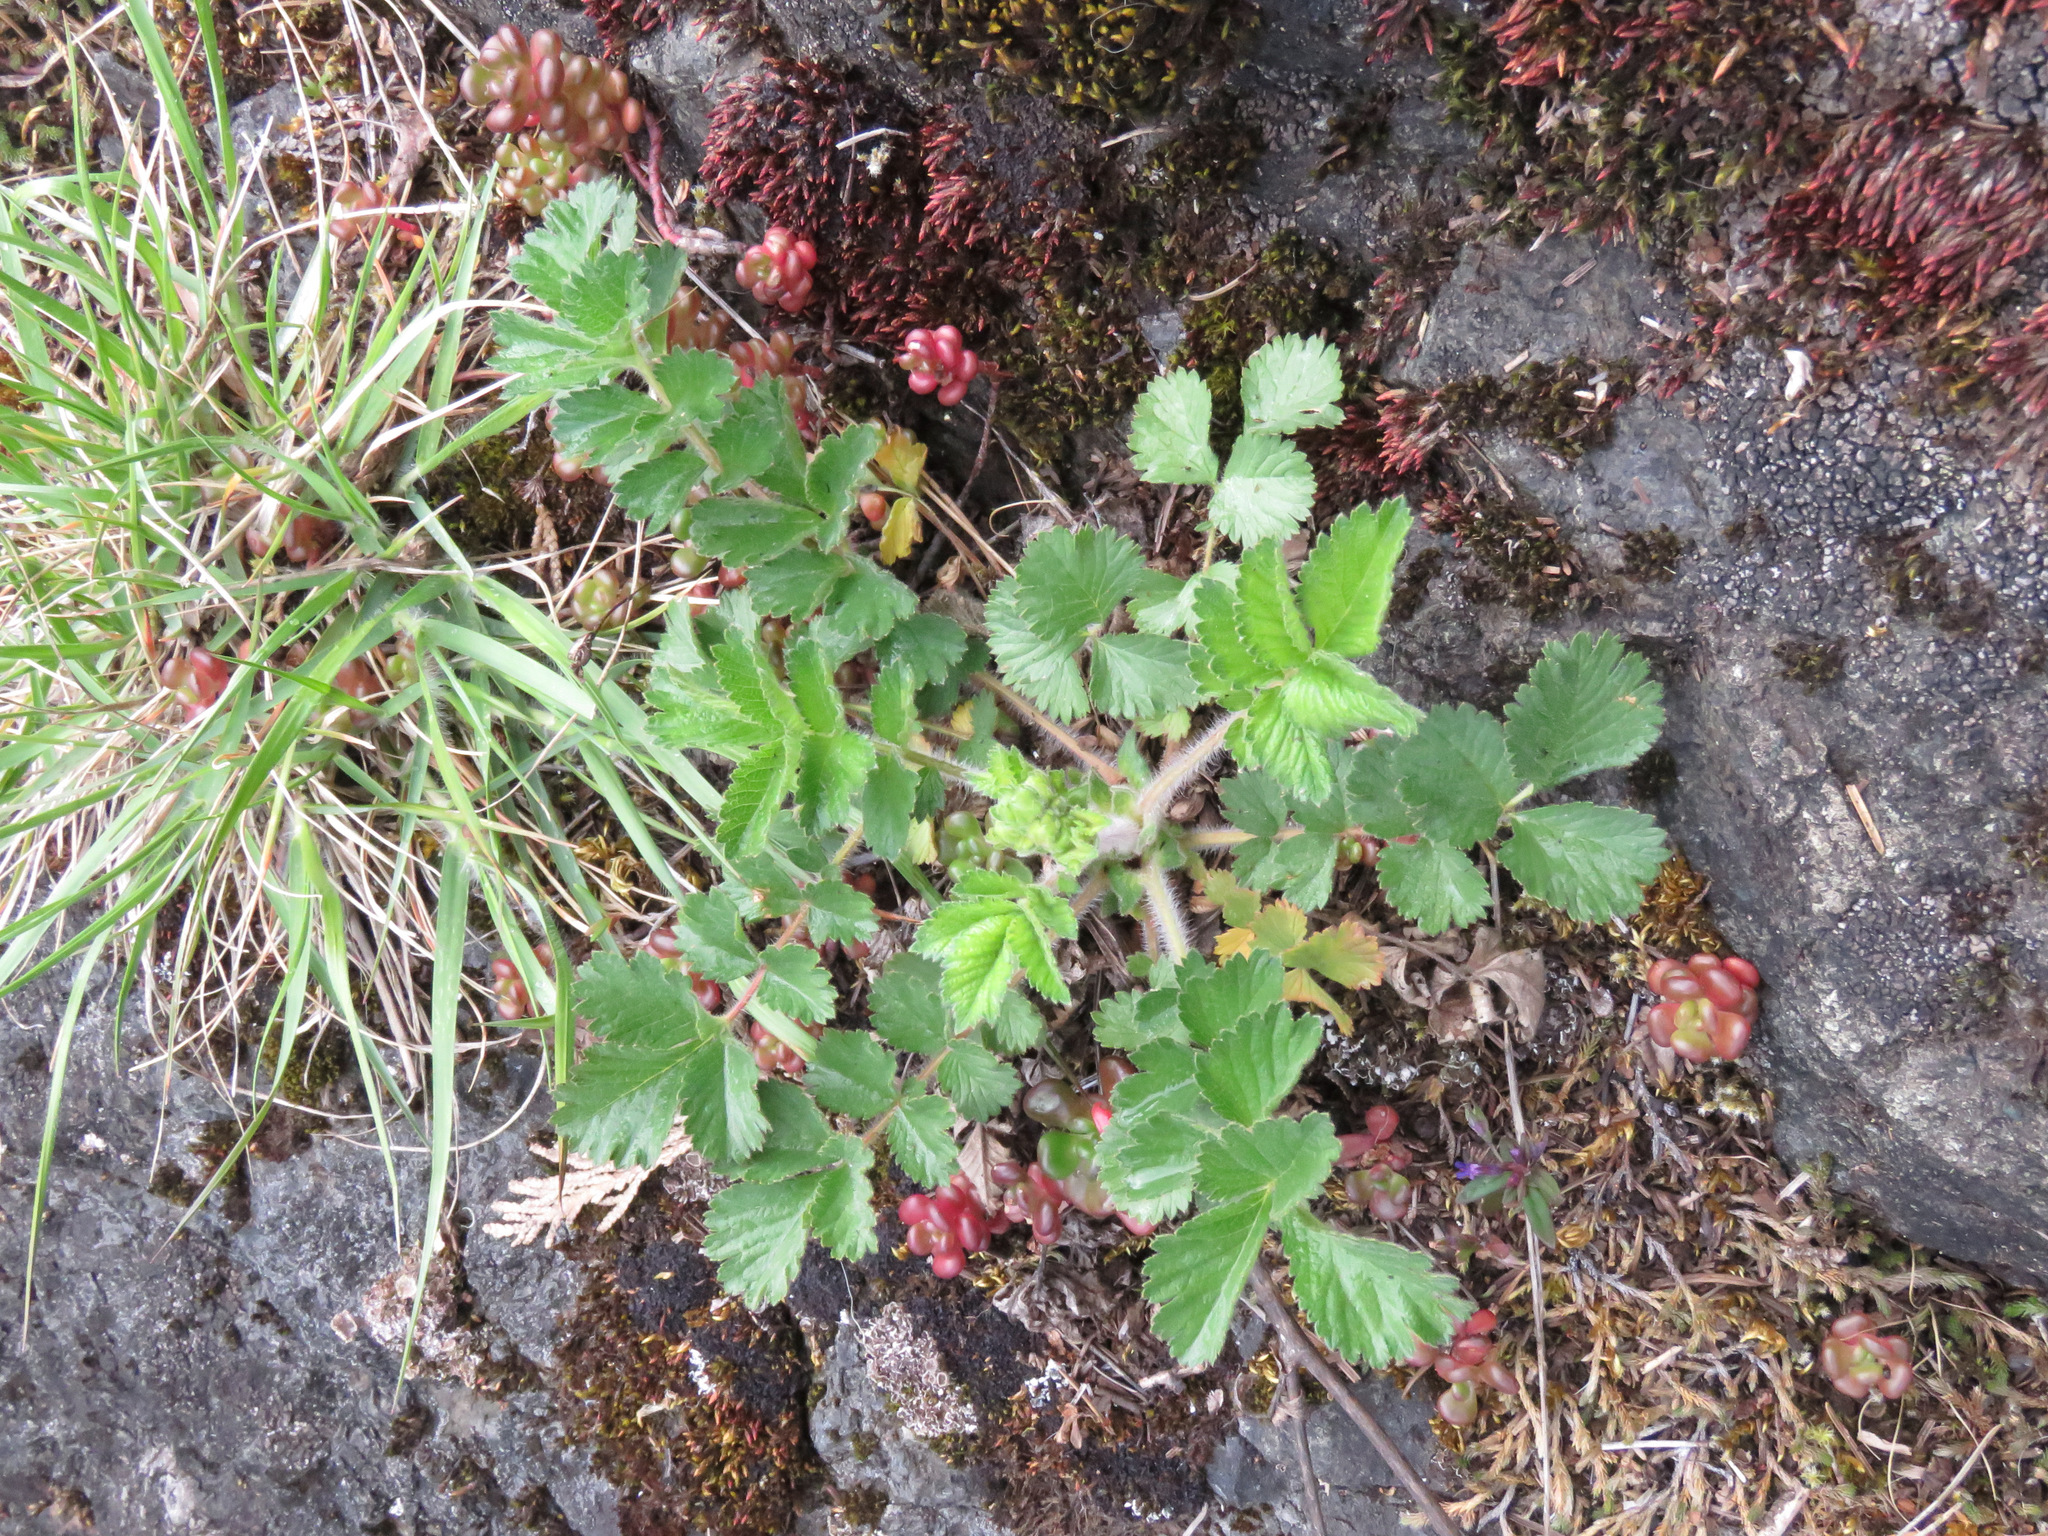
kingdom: Plantae
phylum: Tracheophyta
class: Magnoliopsida
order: Rosales
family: Rosaceae
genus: Drymocallis
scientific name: Drymocallis glandulosa
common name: Sticky cinquefoil
